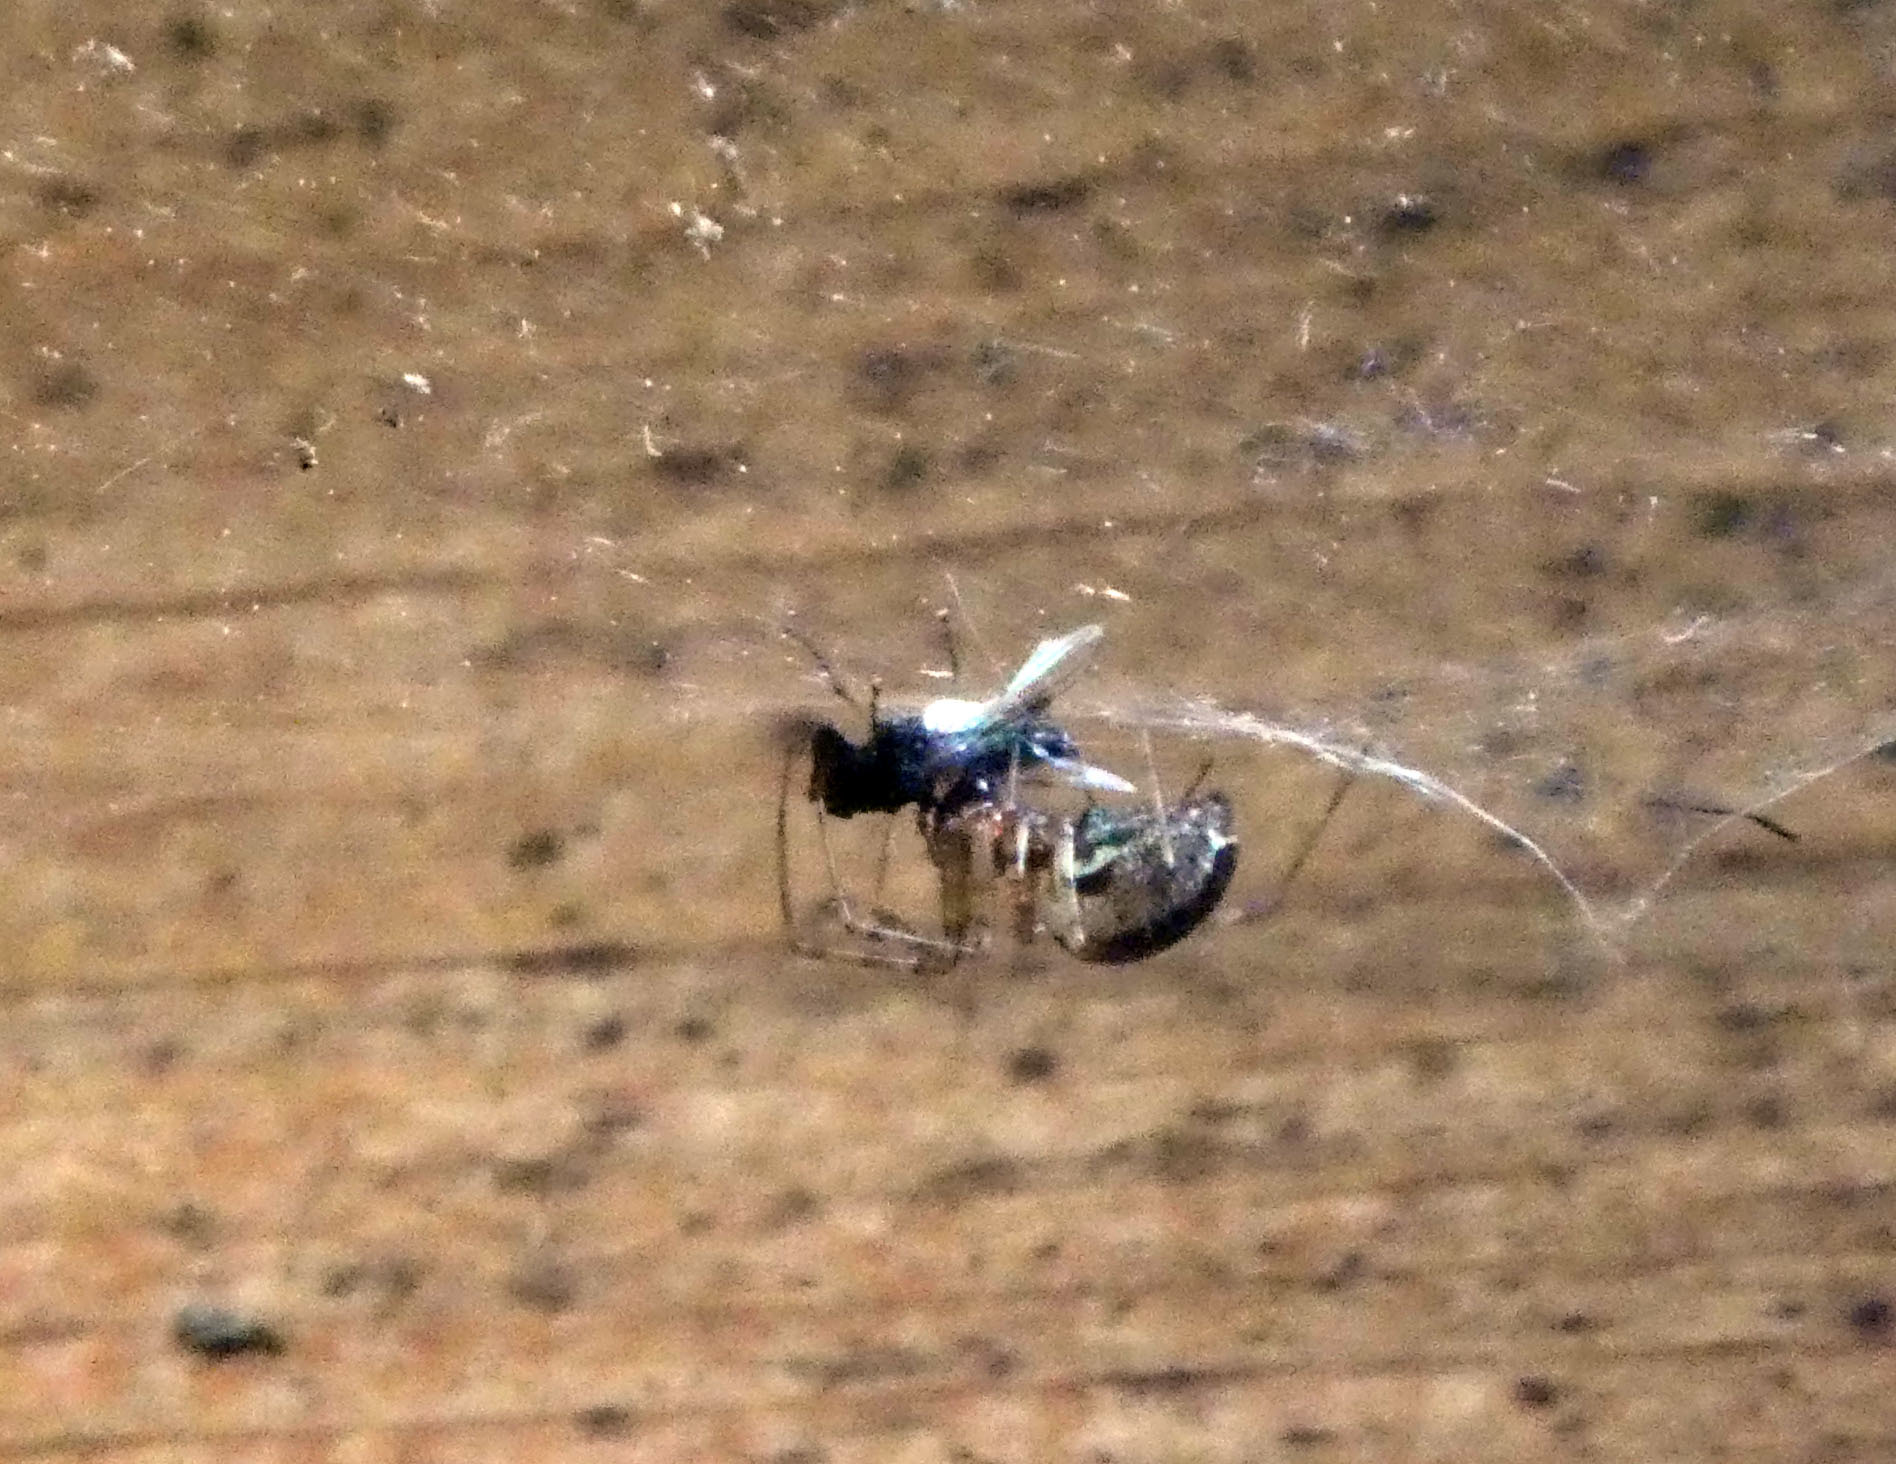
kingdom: Animalia
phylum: Arthropoda
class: Arachnida
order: Araneae
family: Linyphiidae
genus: Neriene
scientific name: Neriene montana
